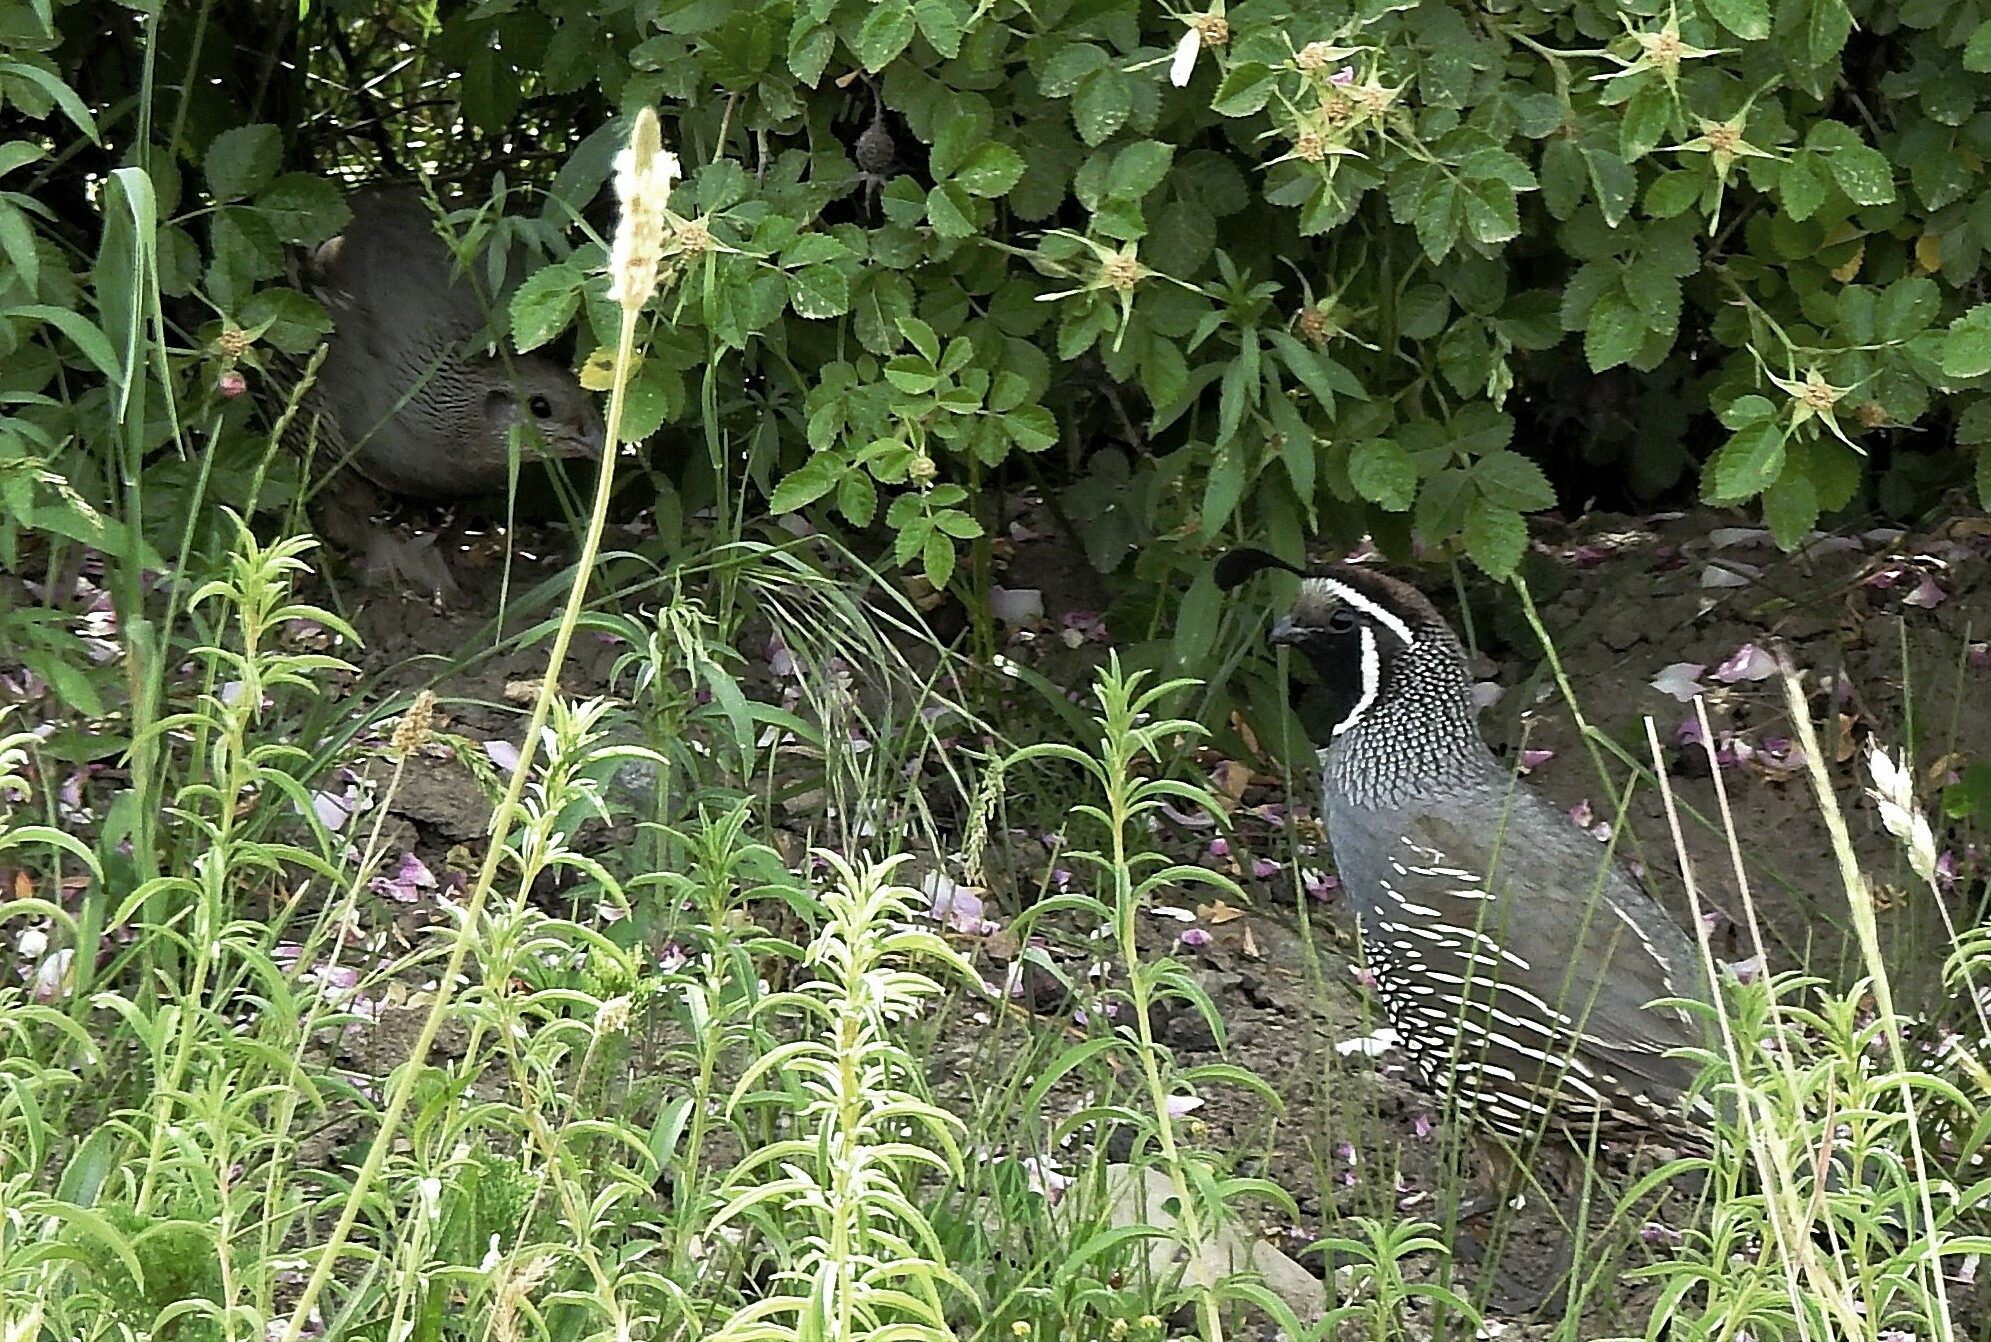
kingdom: Animalia
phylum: Chordata
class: Aves
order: Galliformes
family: Odontophoridae
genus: Callipepla
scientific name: Callipepla californica
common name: California quail
